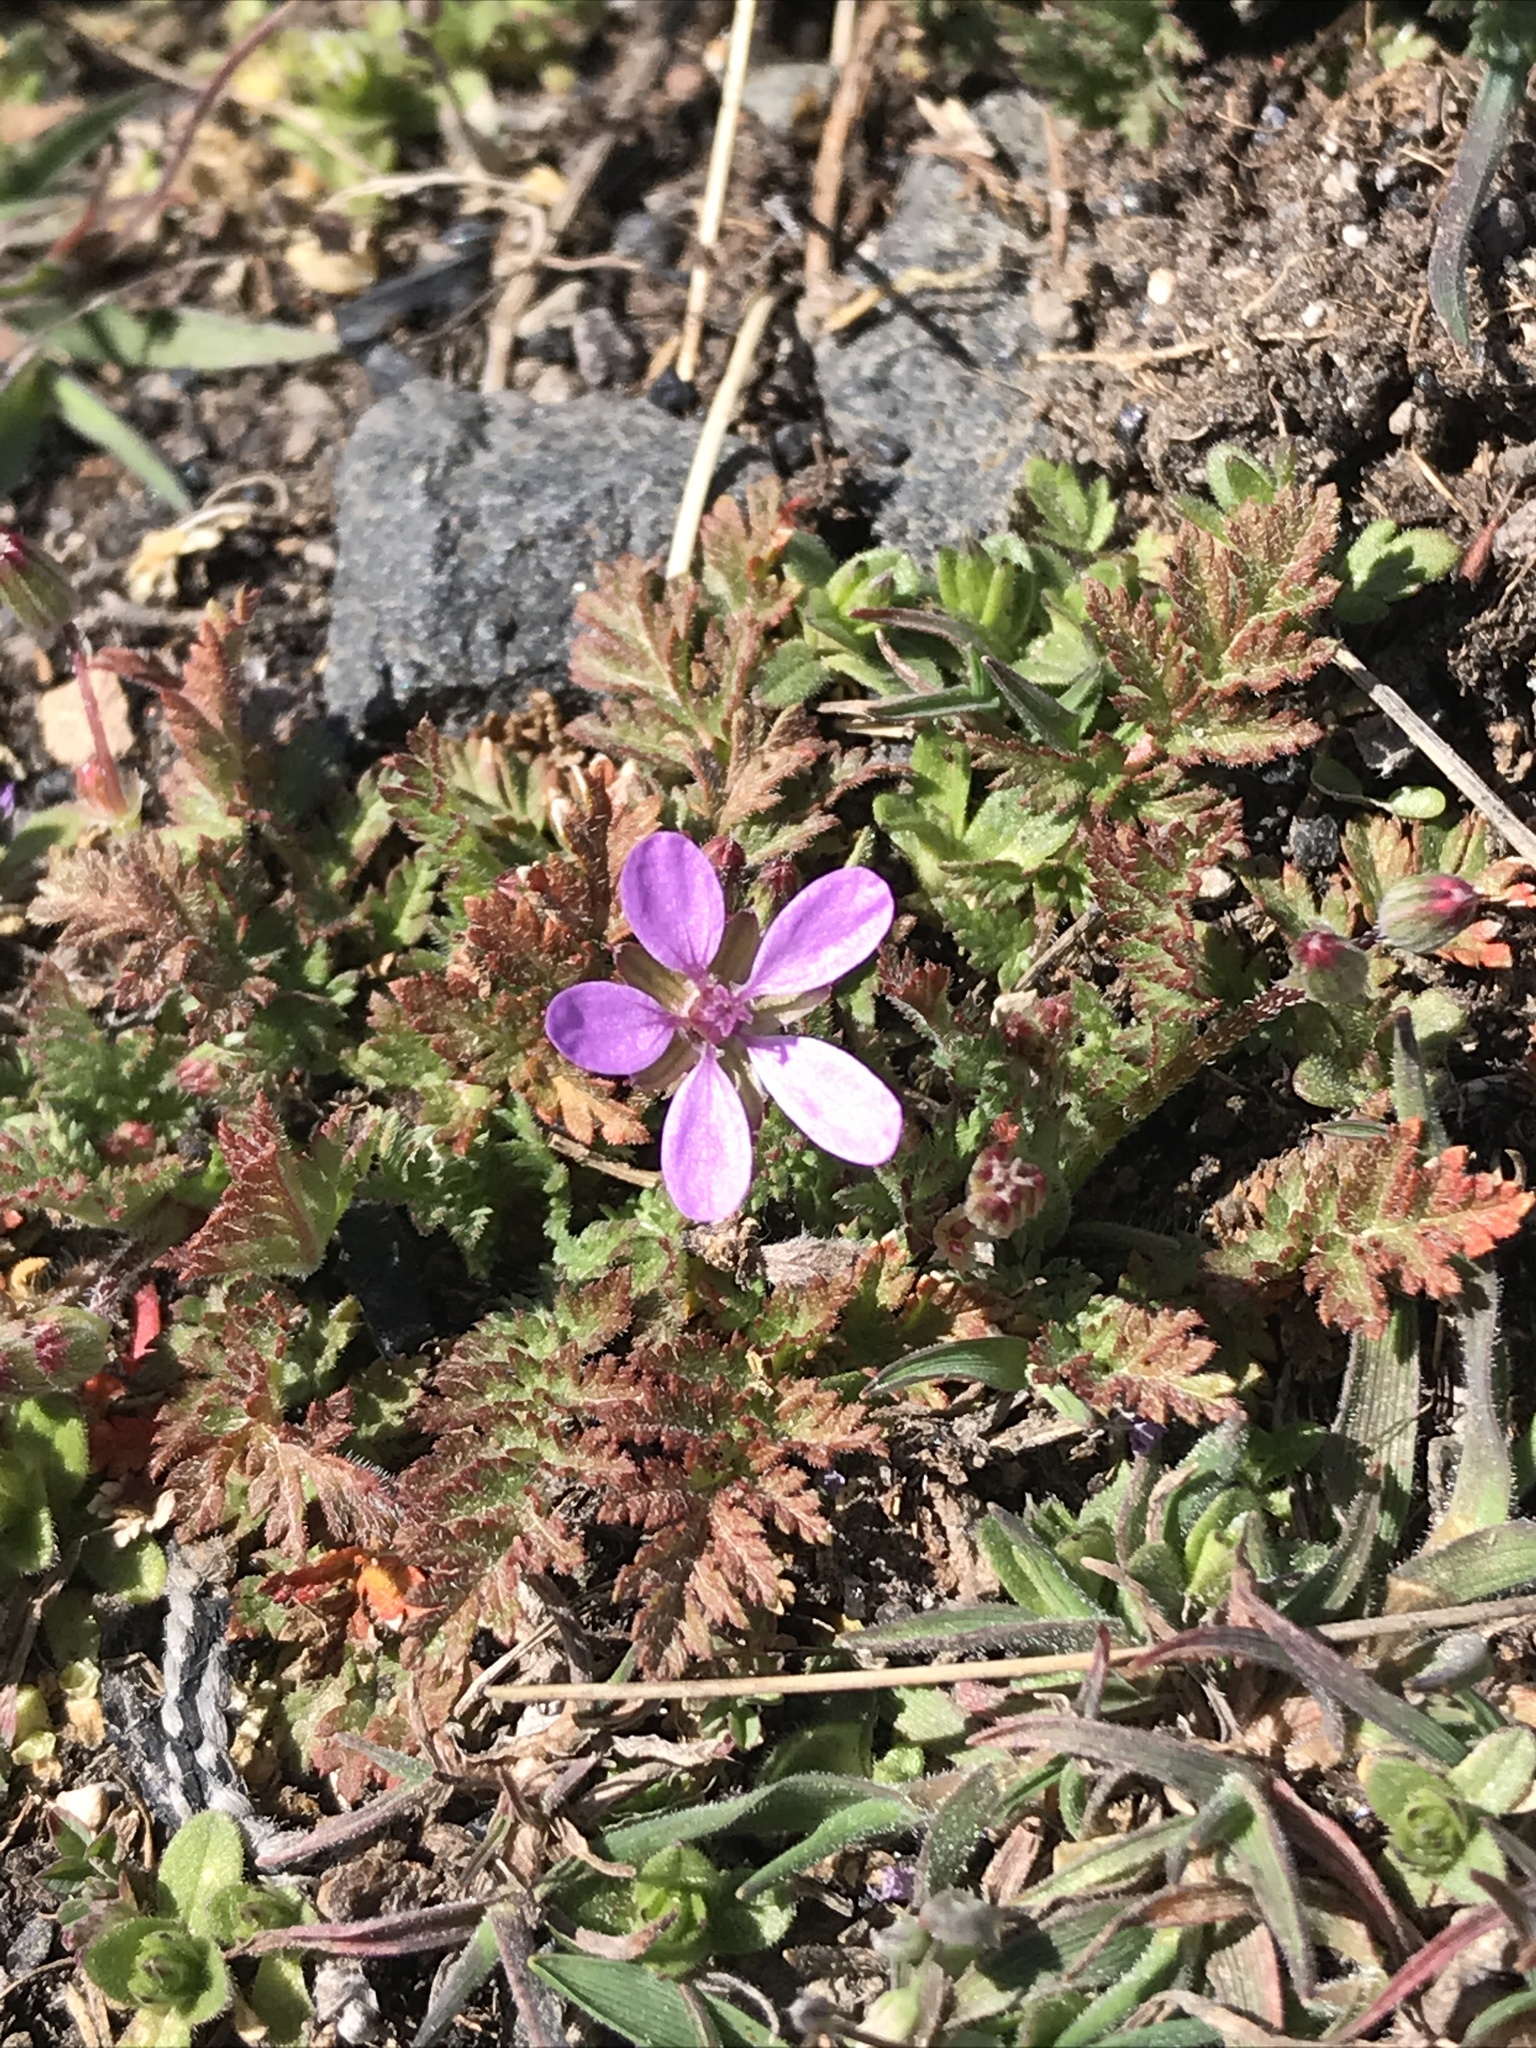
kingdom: Plantae
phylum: Tracheophyta
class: Magnoliopsida
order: Geraniales
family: Geraniaceae
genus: Erodium
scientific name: Erodium cicutarium
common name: Common stork's-bill
